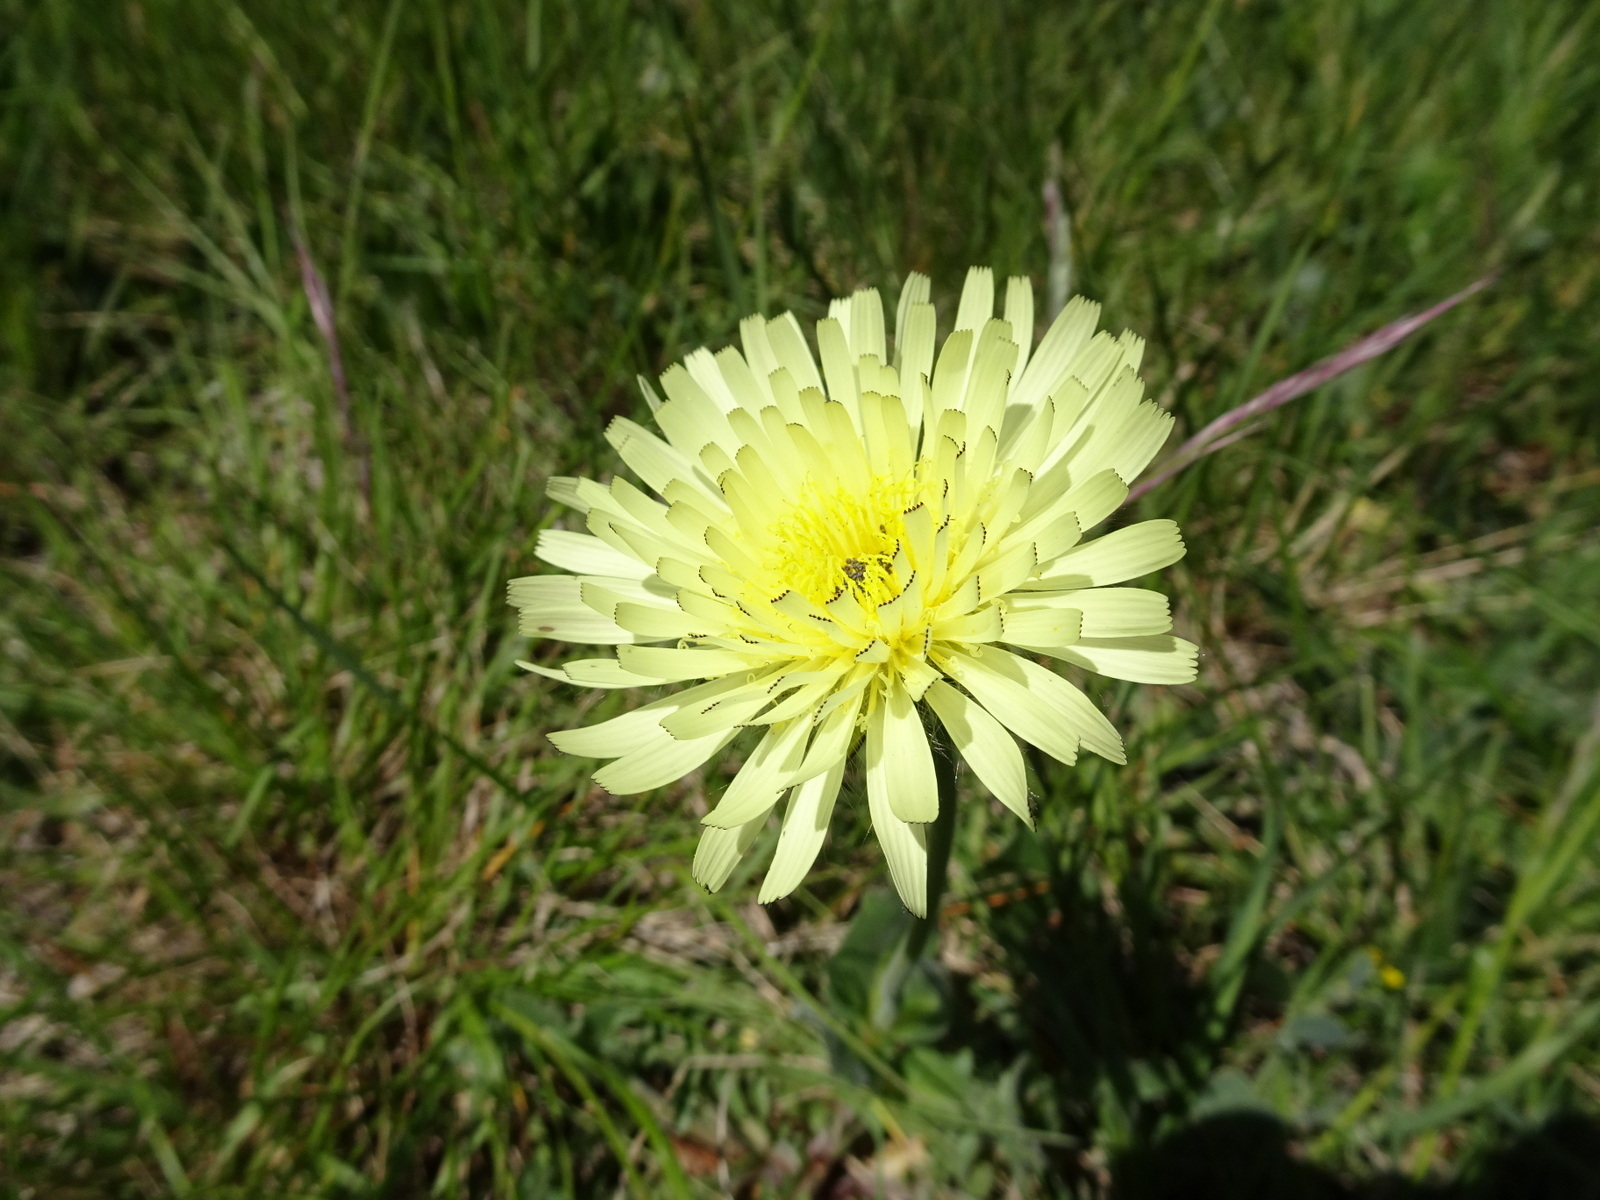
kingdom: Plantae
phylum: Tracheophyta
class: Magnoliopsida
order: Asterales
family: Asteraceae
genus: Urospermum
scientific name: Urospermum dalechampii
